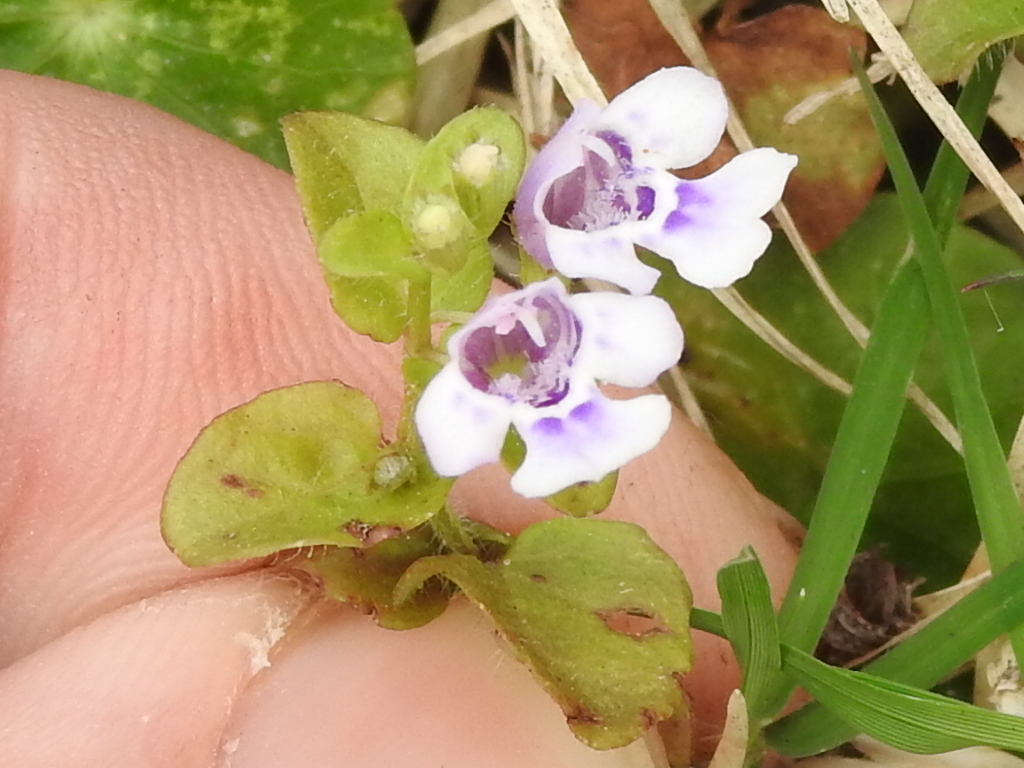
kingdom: Plantae
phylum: Tracheophyta
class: Magnoliopsida
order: Lamiales
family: Lamiaceae
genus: Clinopodium
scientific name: Clinopodium brownei
